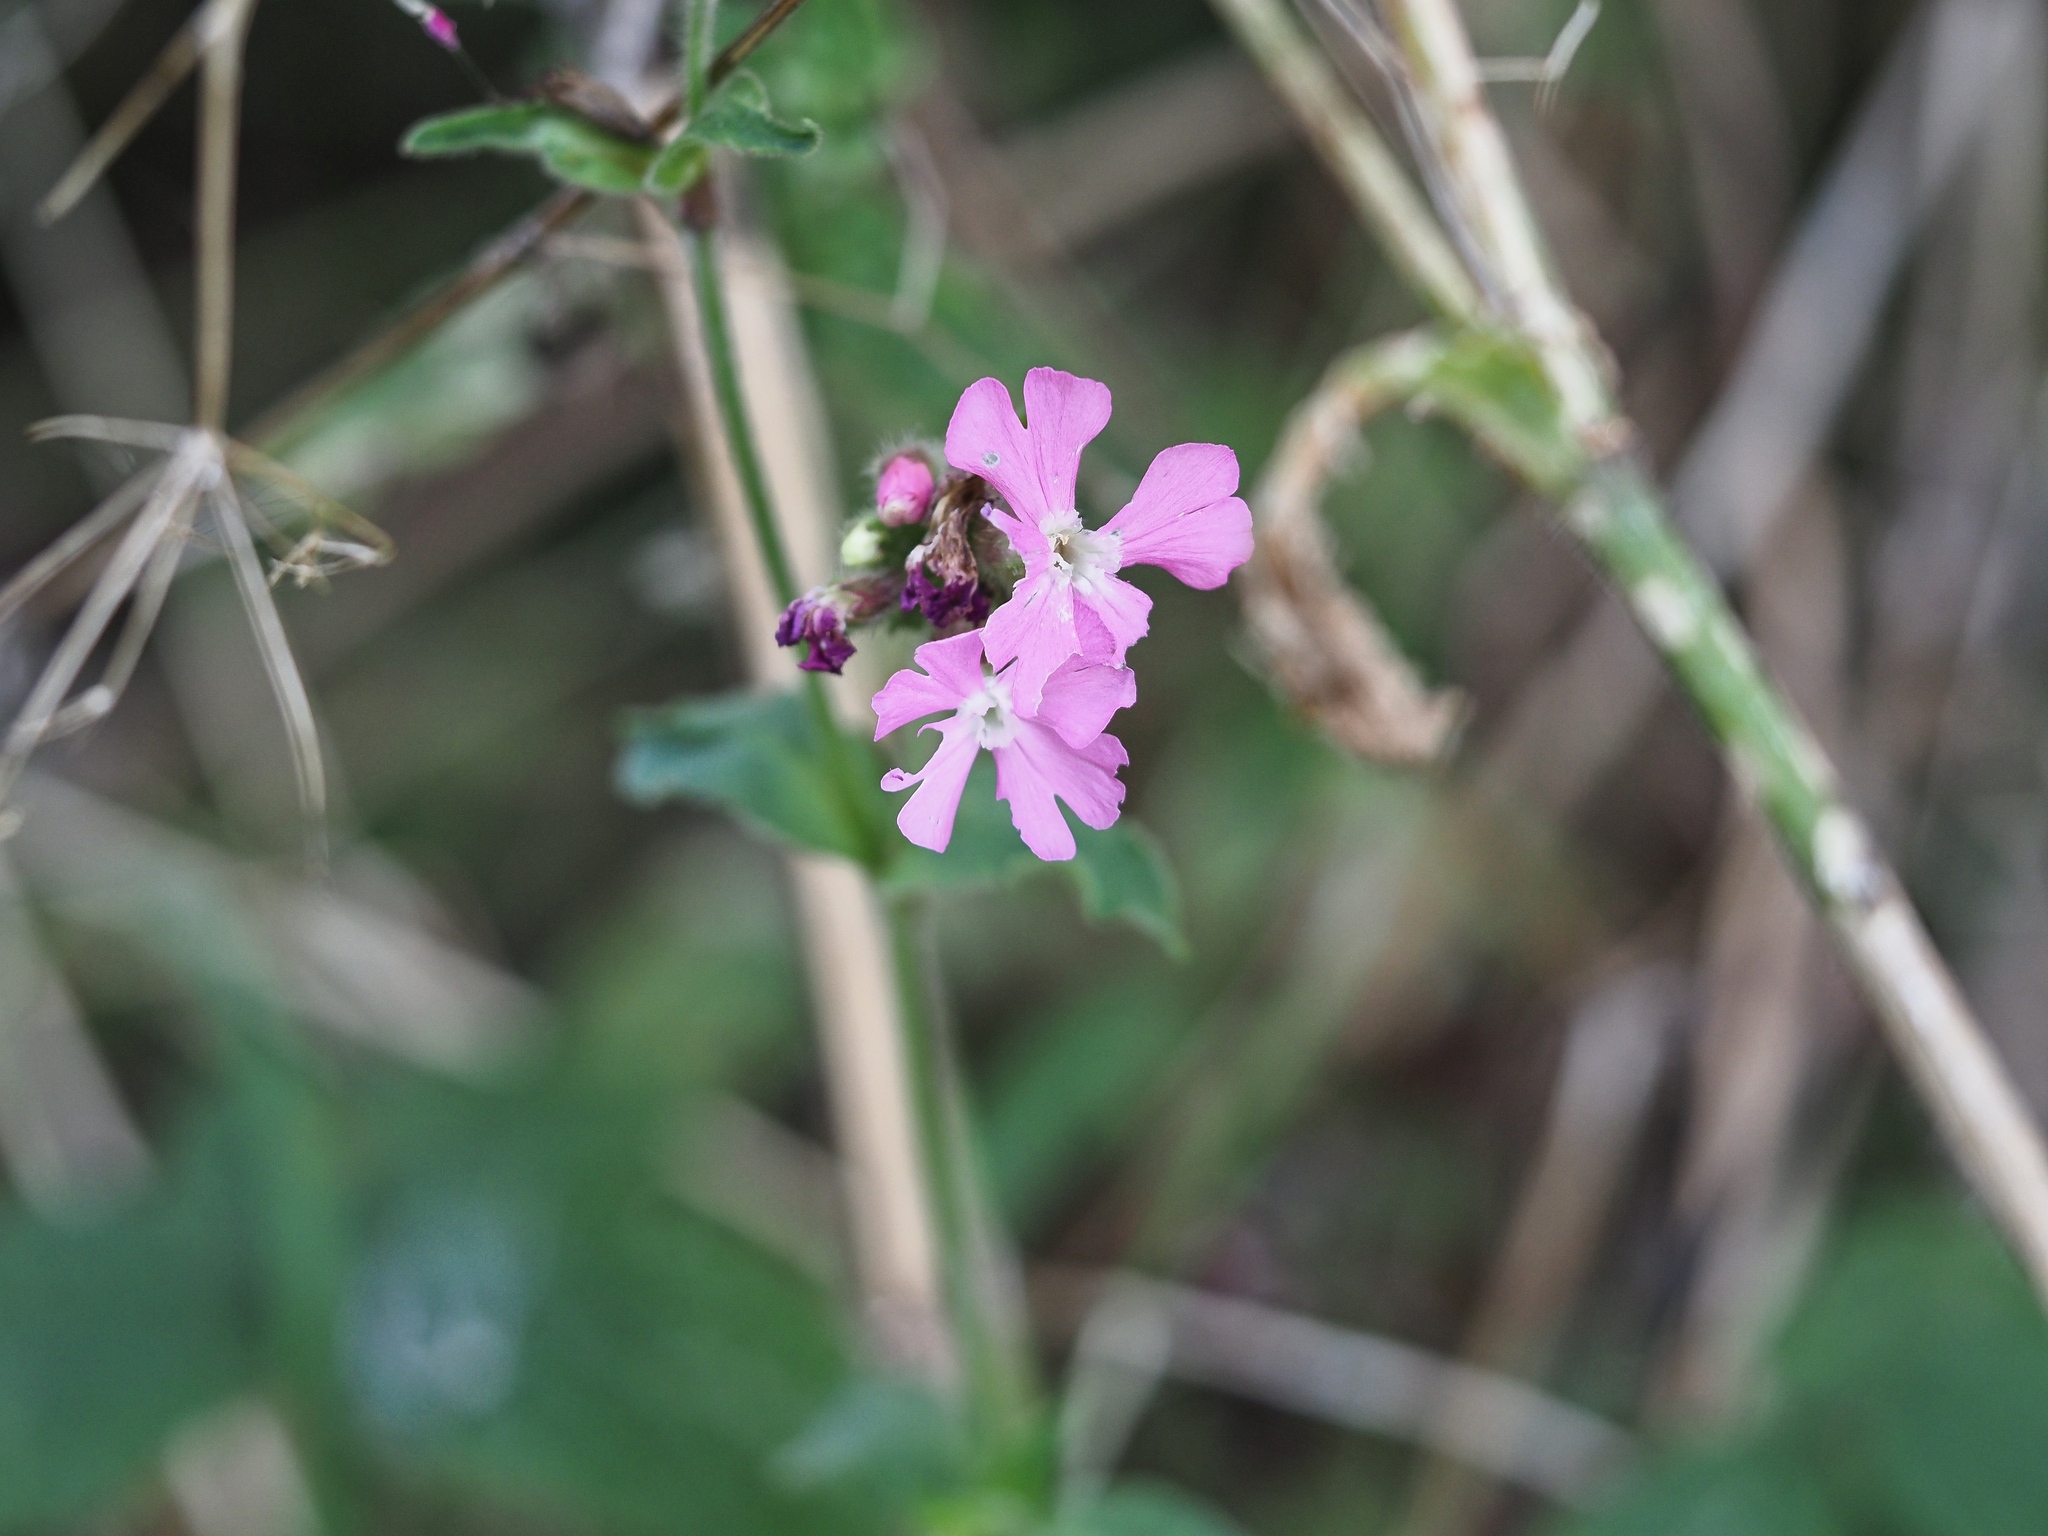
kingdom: Plantae
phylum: Tracheophyta
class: Magnoliopsida
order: Caryophyllales
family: Caryophyllaceae
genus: Silene
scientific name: Silene dioica
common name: Red campion
